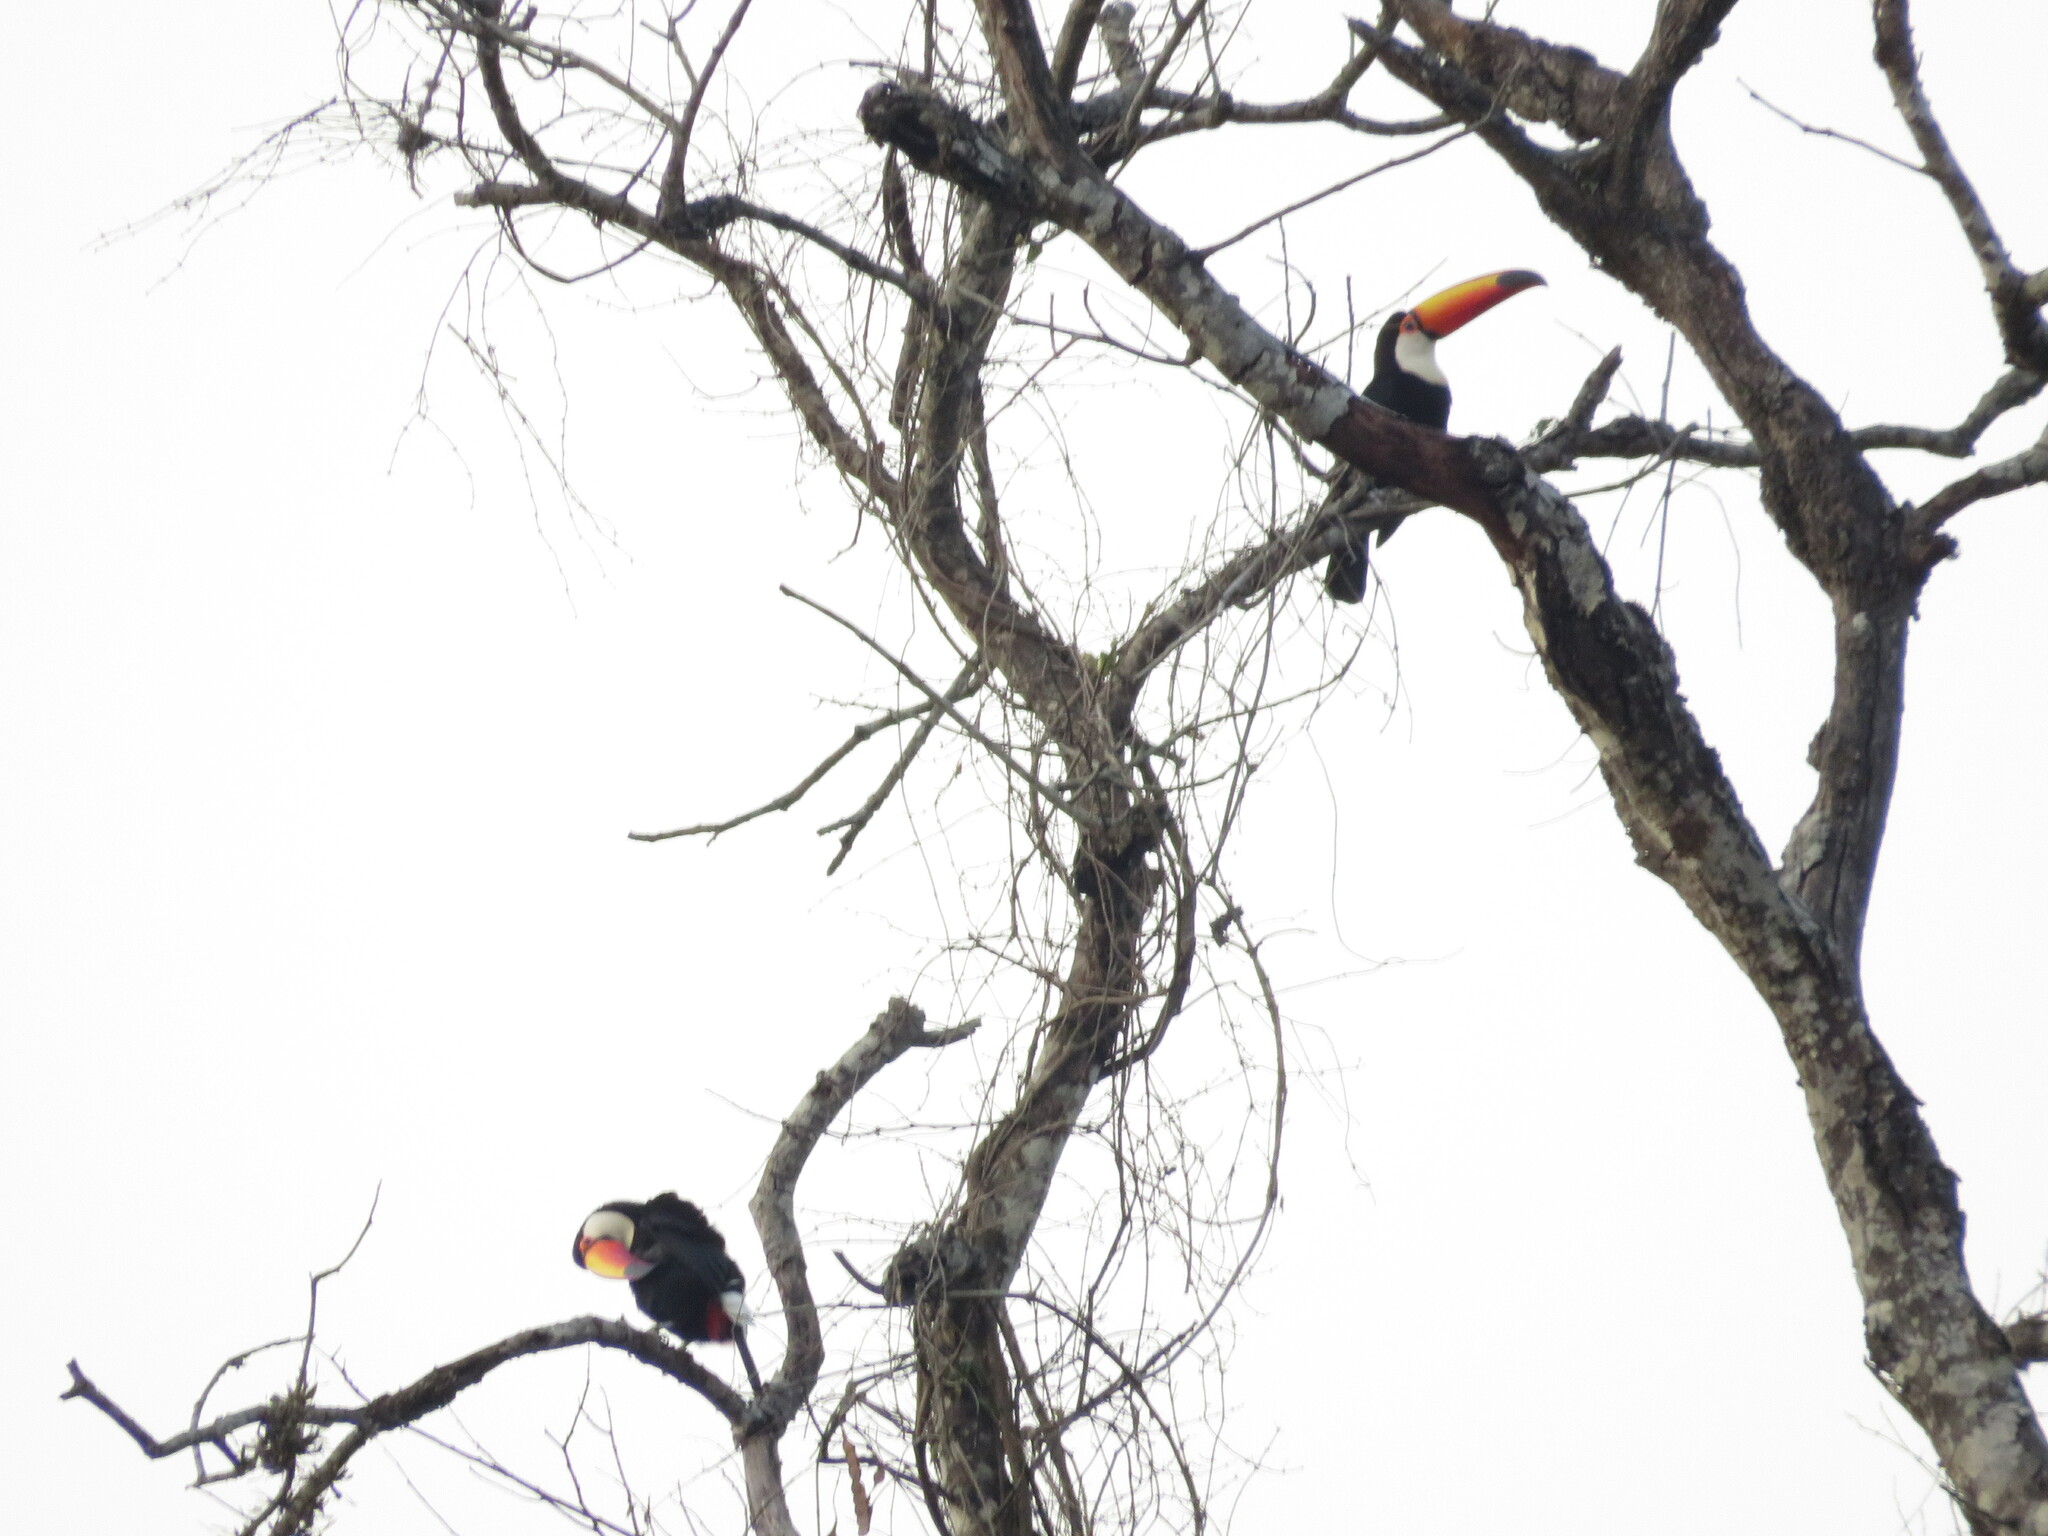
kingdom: Animalia
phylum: Chordata
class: Aves
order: Piciformes
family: Ramphastidae
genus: Ramphastos
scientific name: Ramphastos toco
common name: Toco toucan
